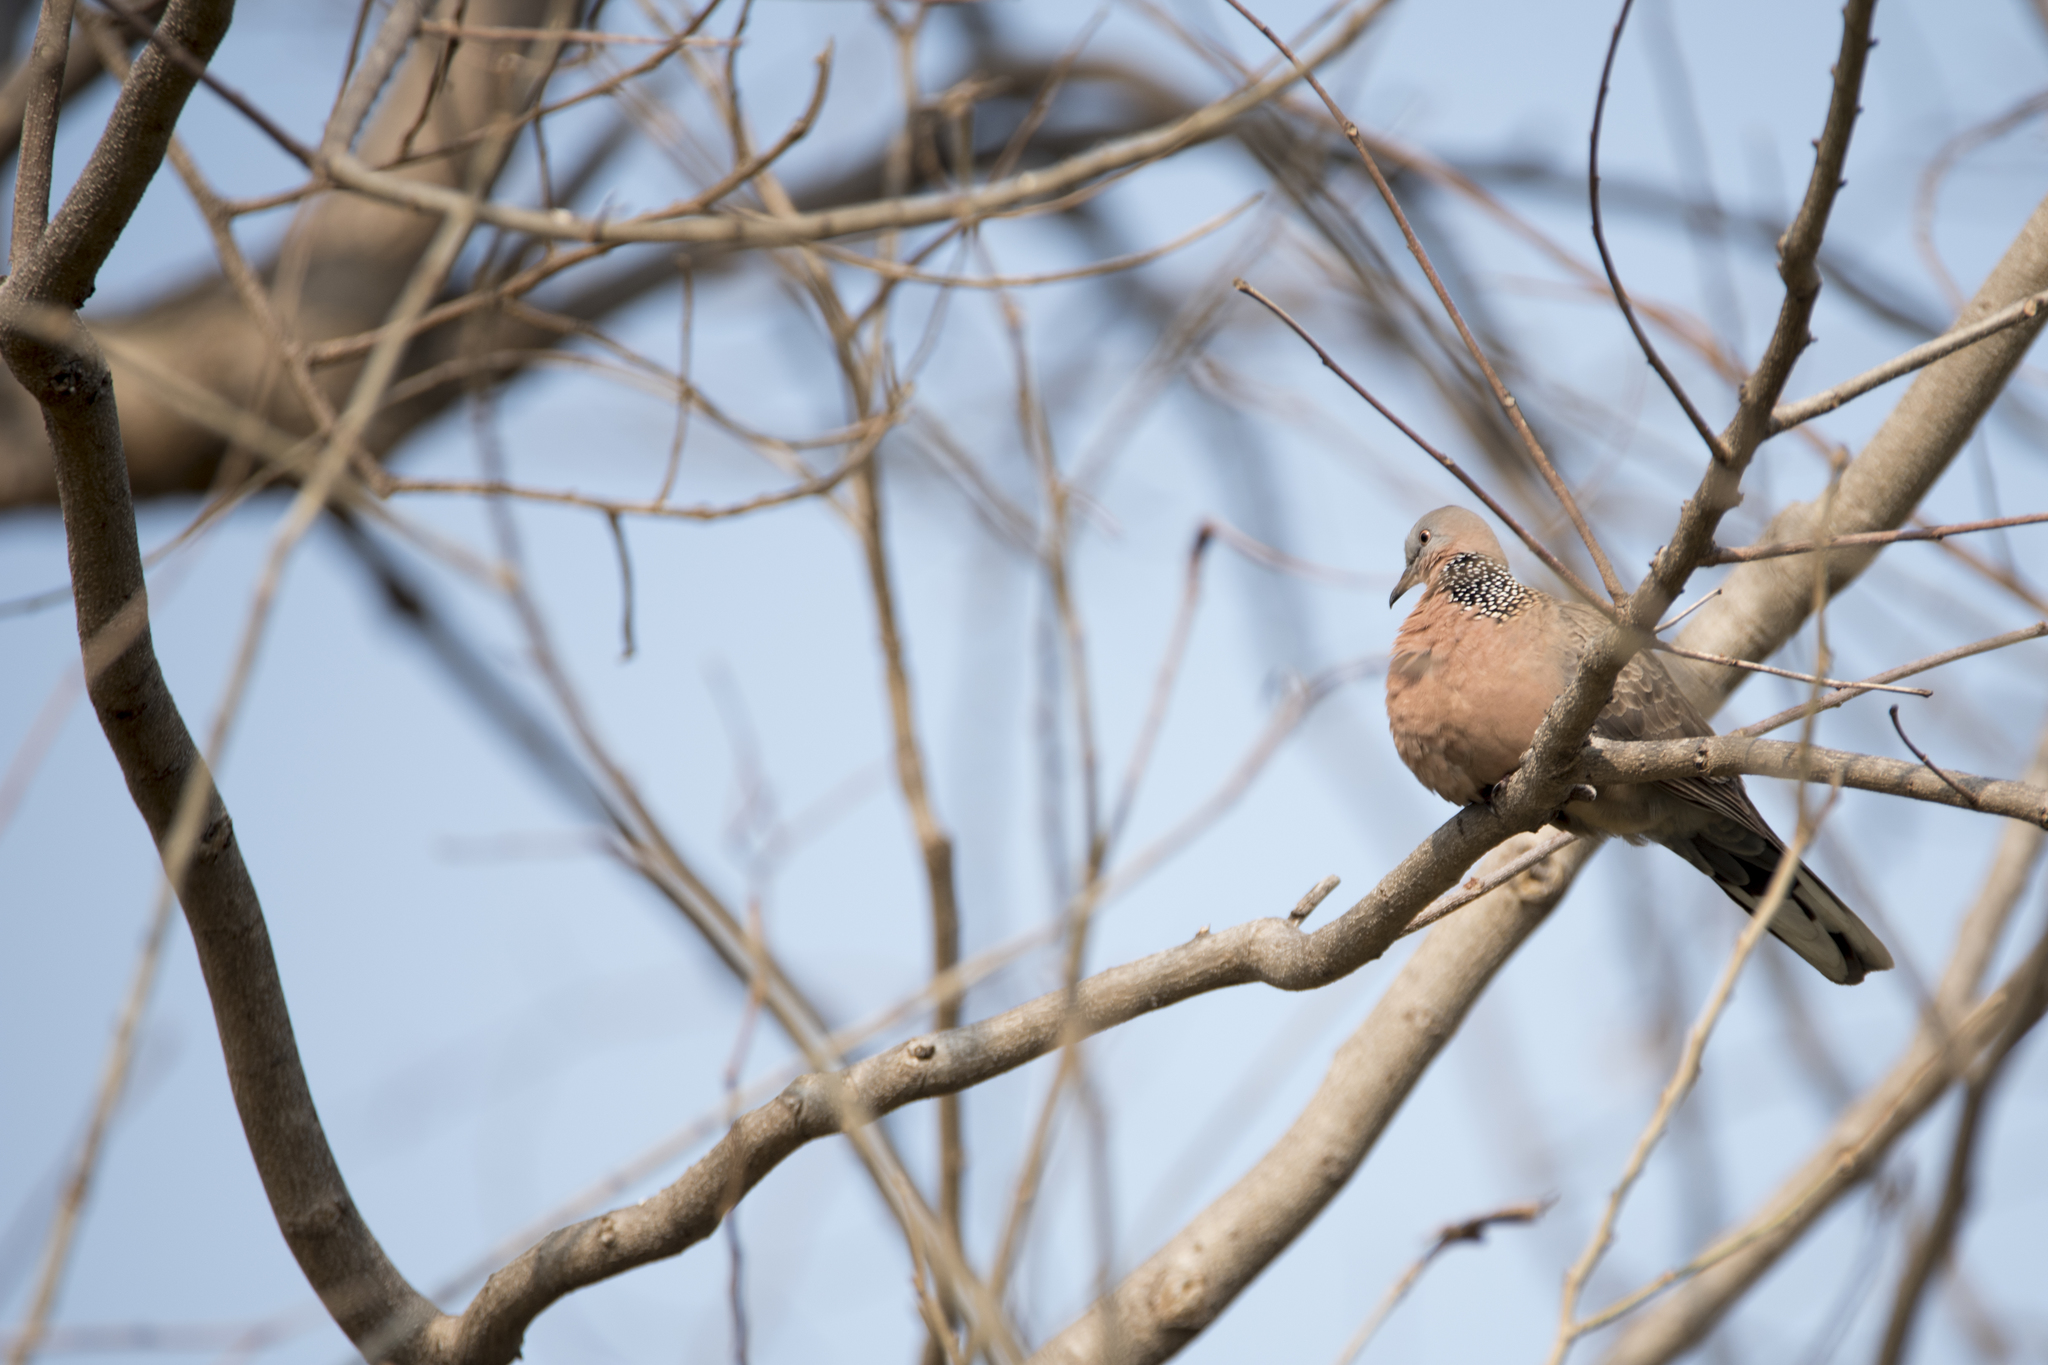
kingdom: Animalia
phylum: Chordata
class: Aves
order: Columbiformes
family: Columbidae
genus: Spilopelia
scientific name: Spilopelia chinensis
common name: Spotted dove
